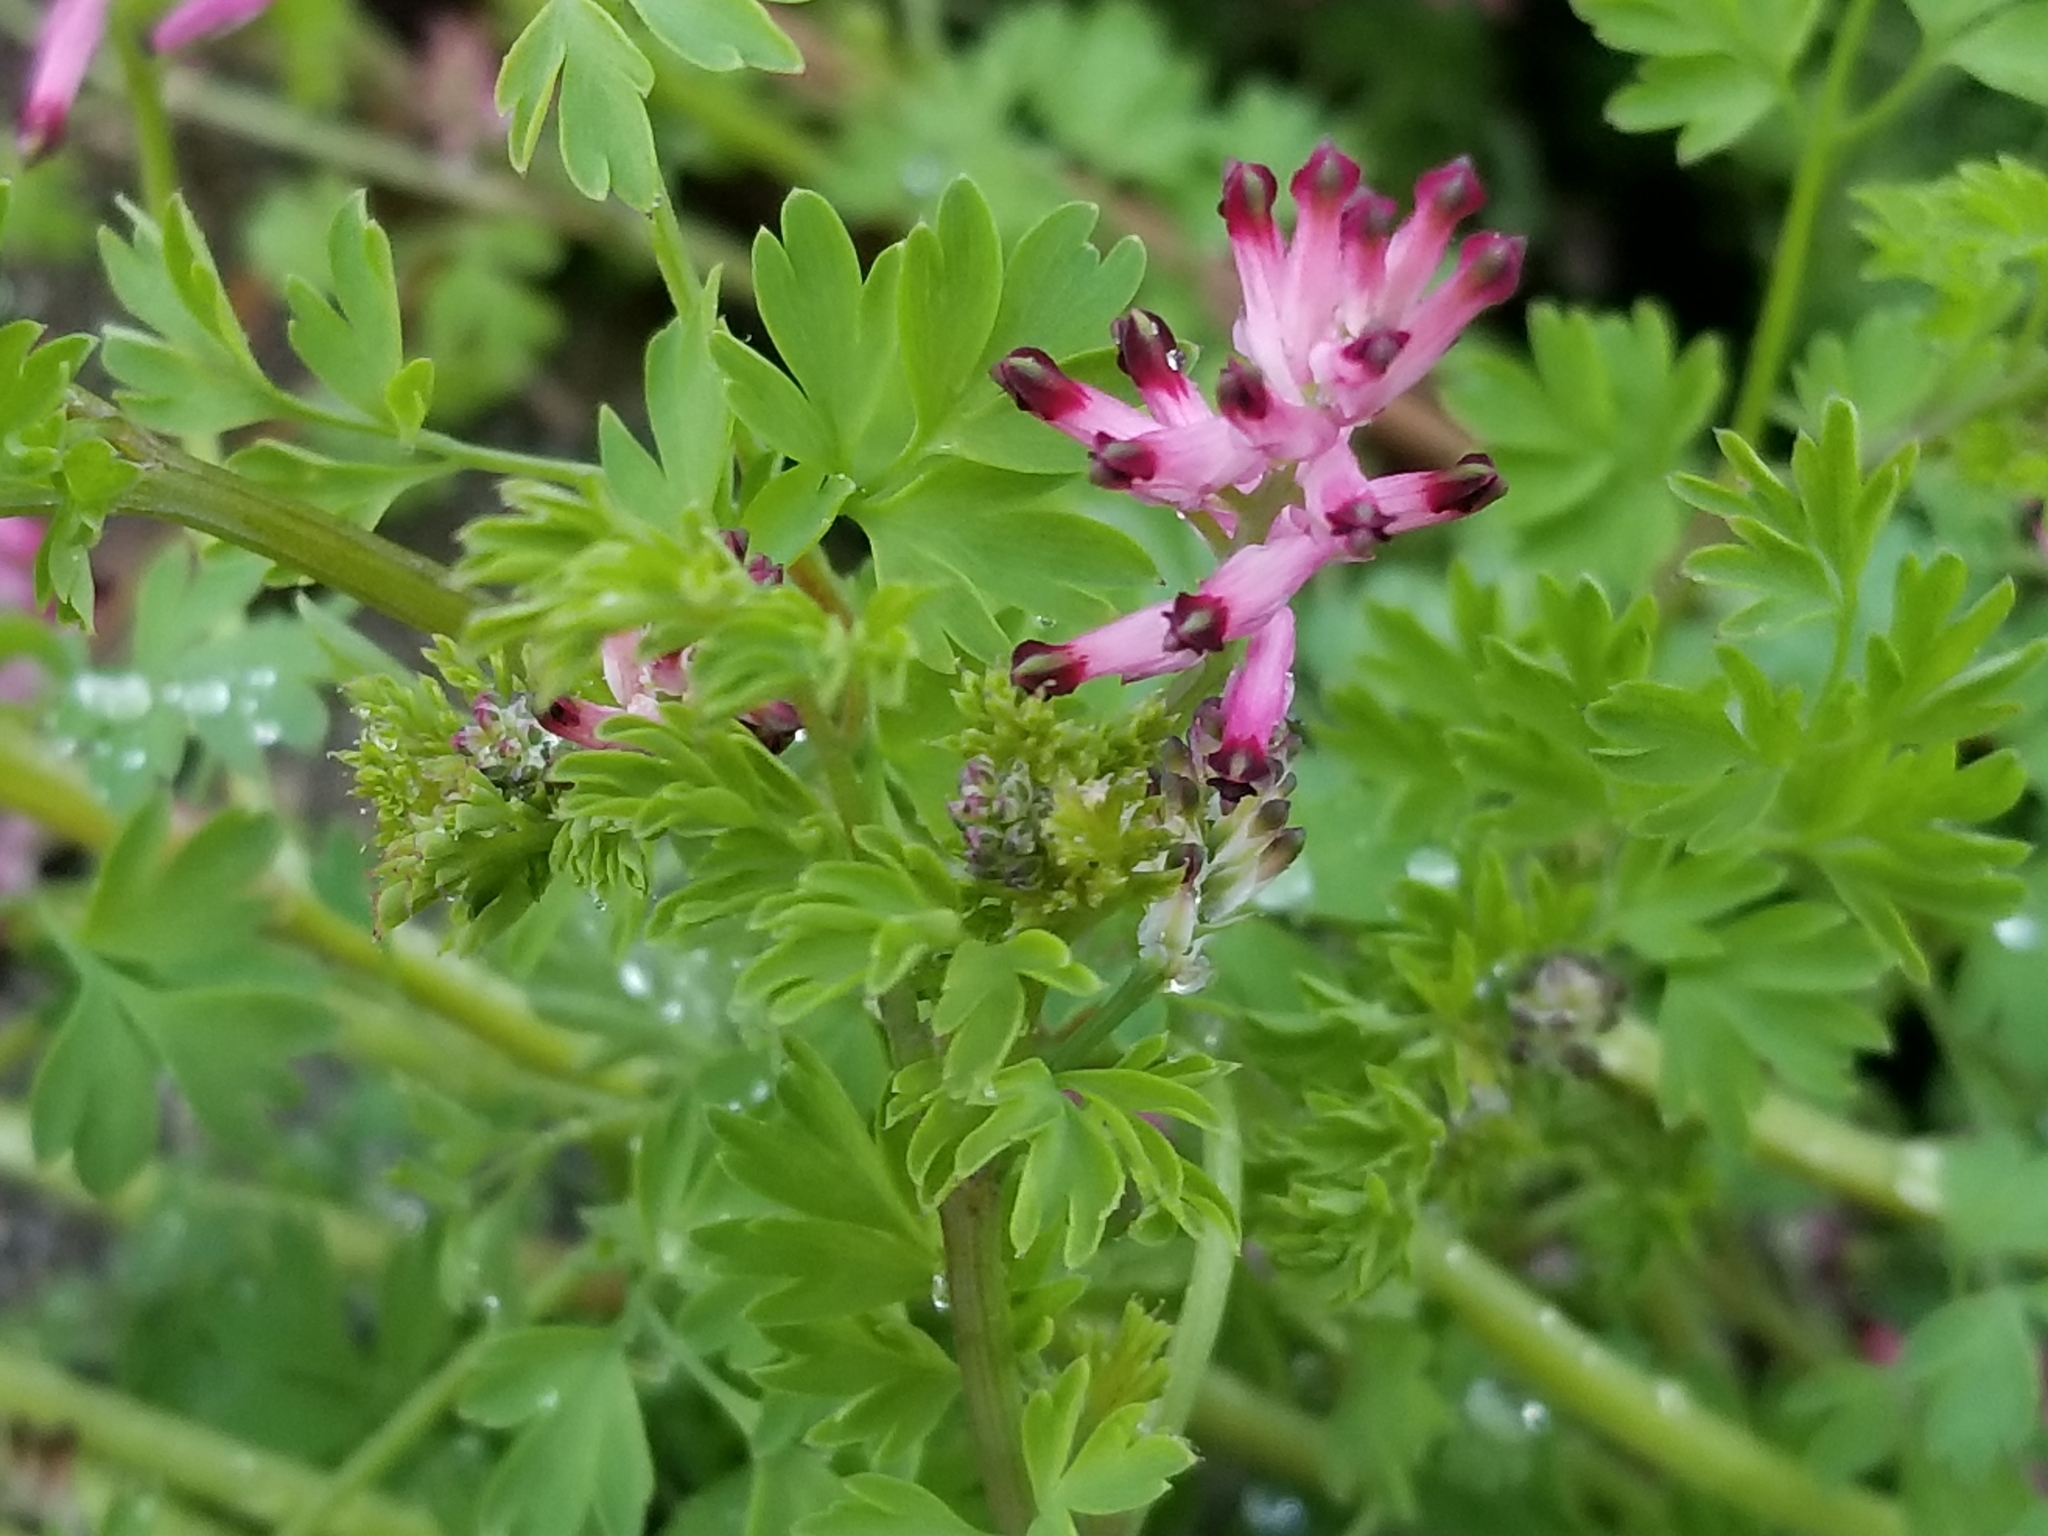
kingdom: Plantae
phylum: Tracheophyta
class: Magnoliopsida
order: Ranunculales
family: Papaveraceae
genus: Fumaria
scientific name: Fumaria bastardii
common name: Tall ramping-fumitory
